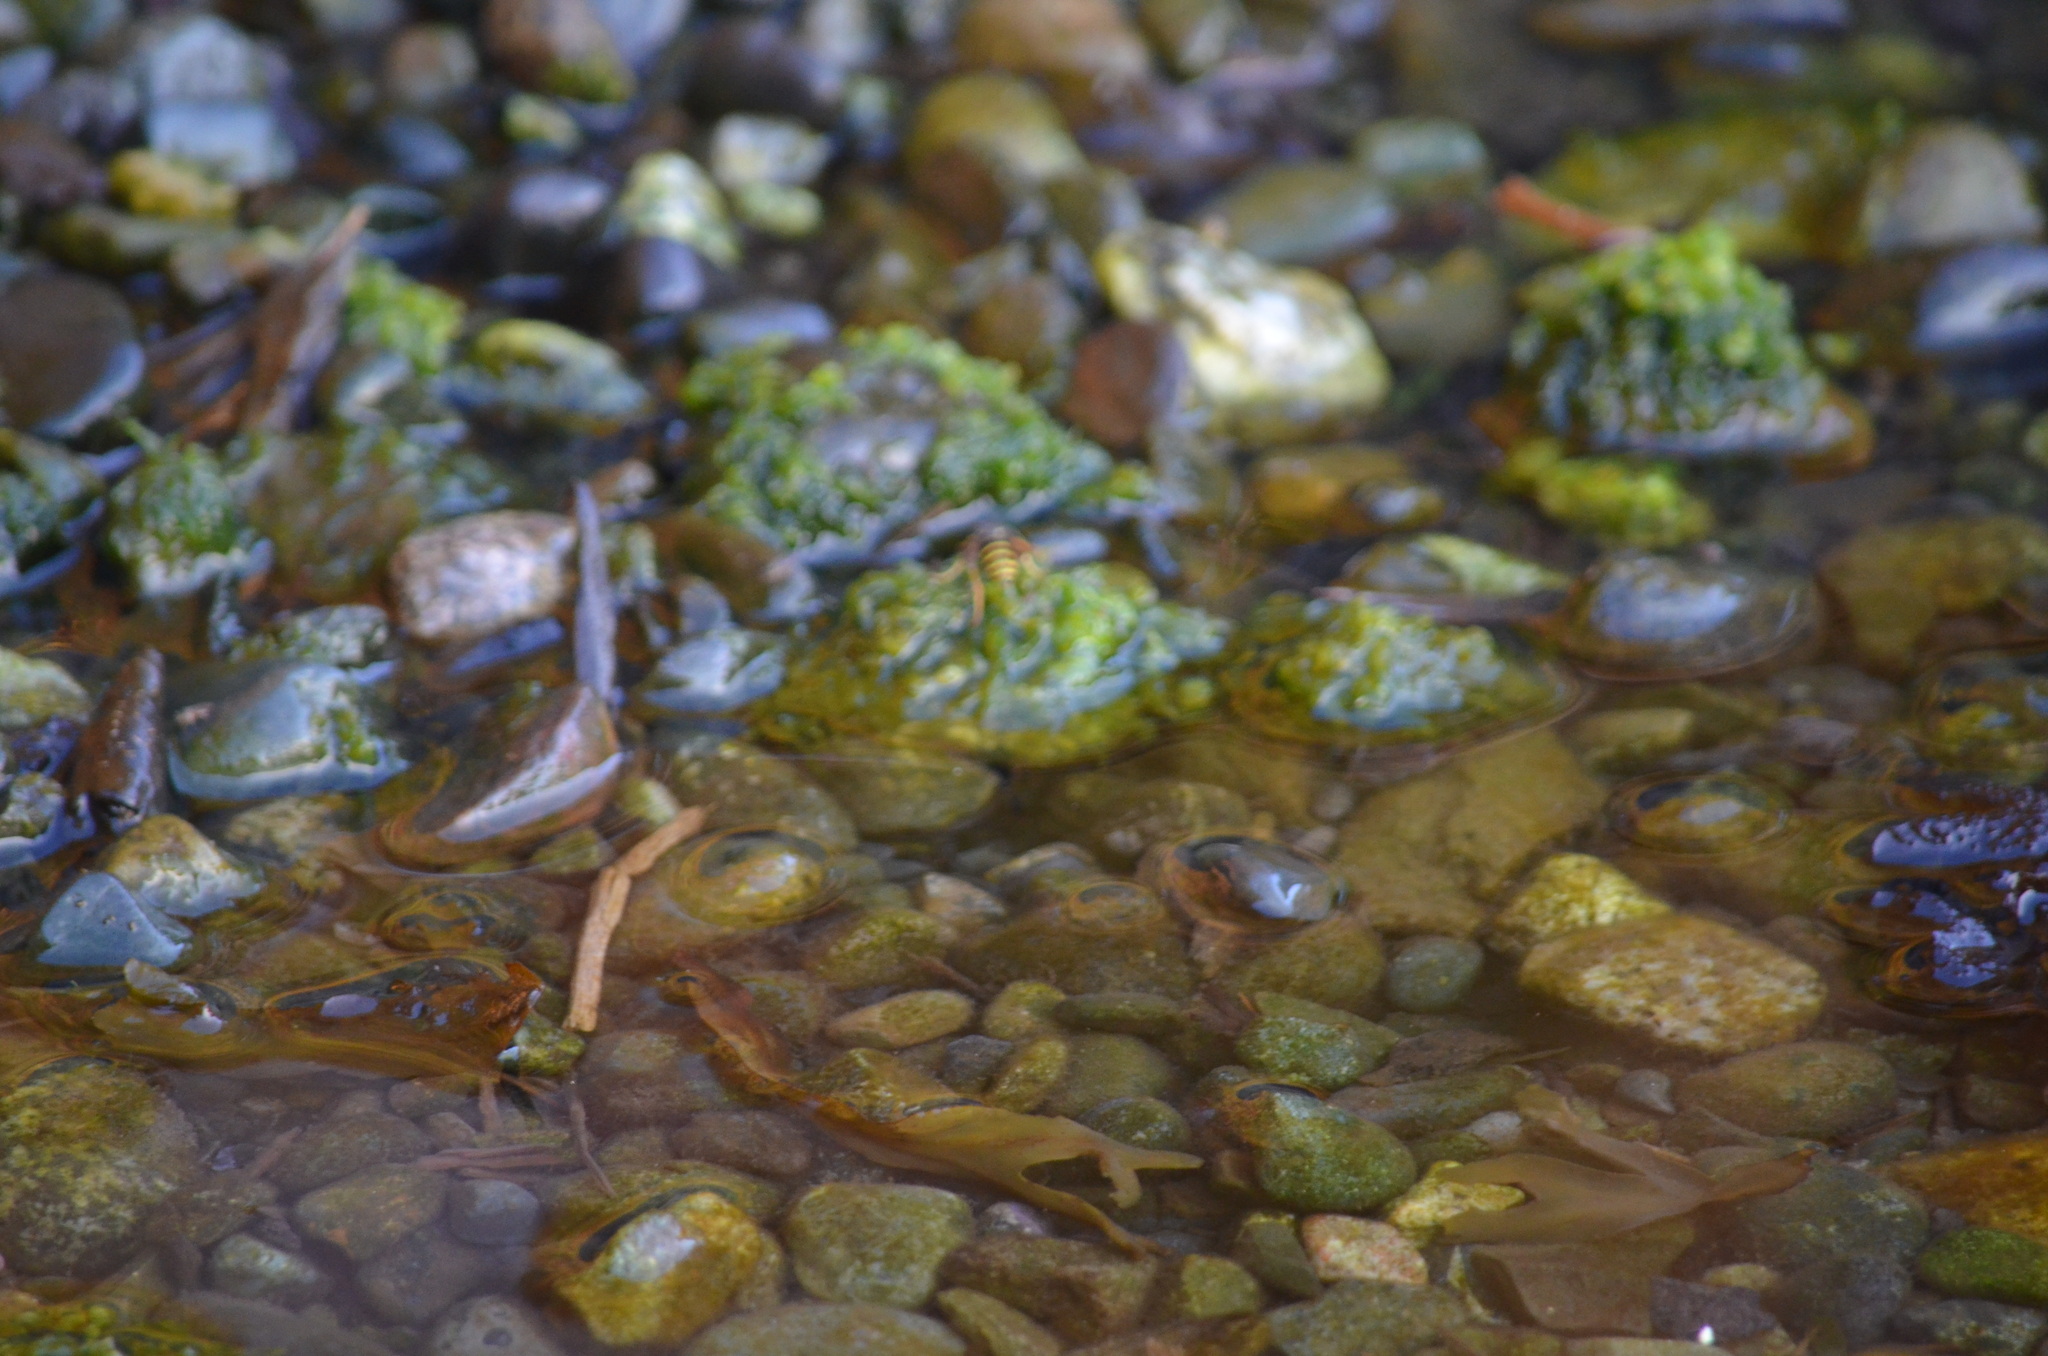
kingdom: Animalia
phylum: Arthropoda
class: Insecta
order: Hymenoptera
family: Eumenidae
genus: Polistes
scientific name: Polistes dominula
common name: Paper wasp
